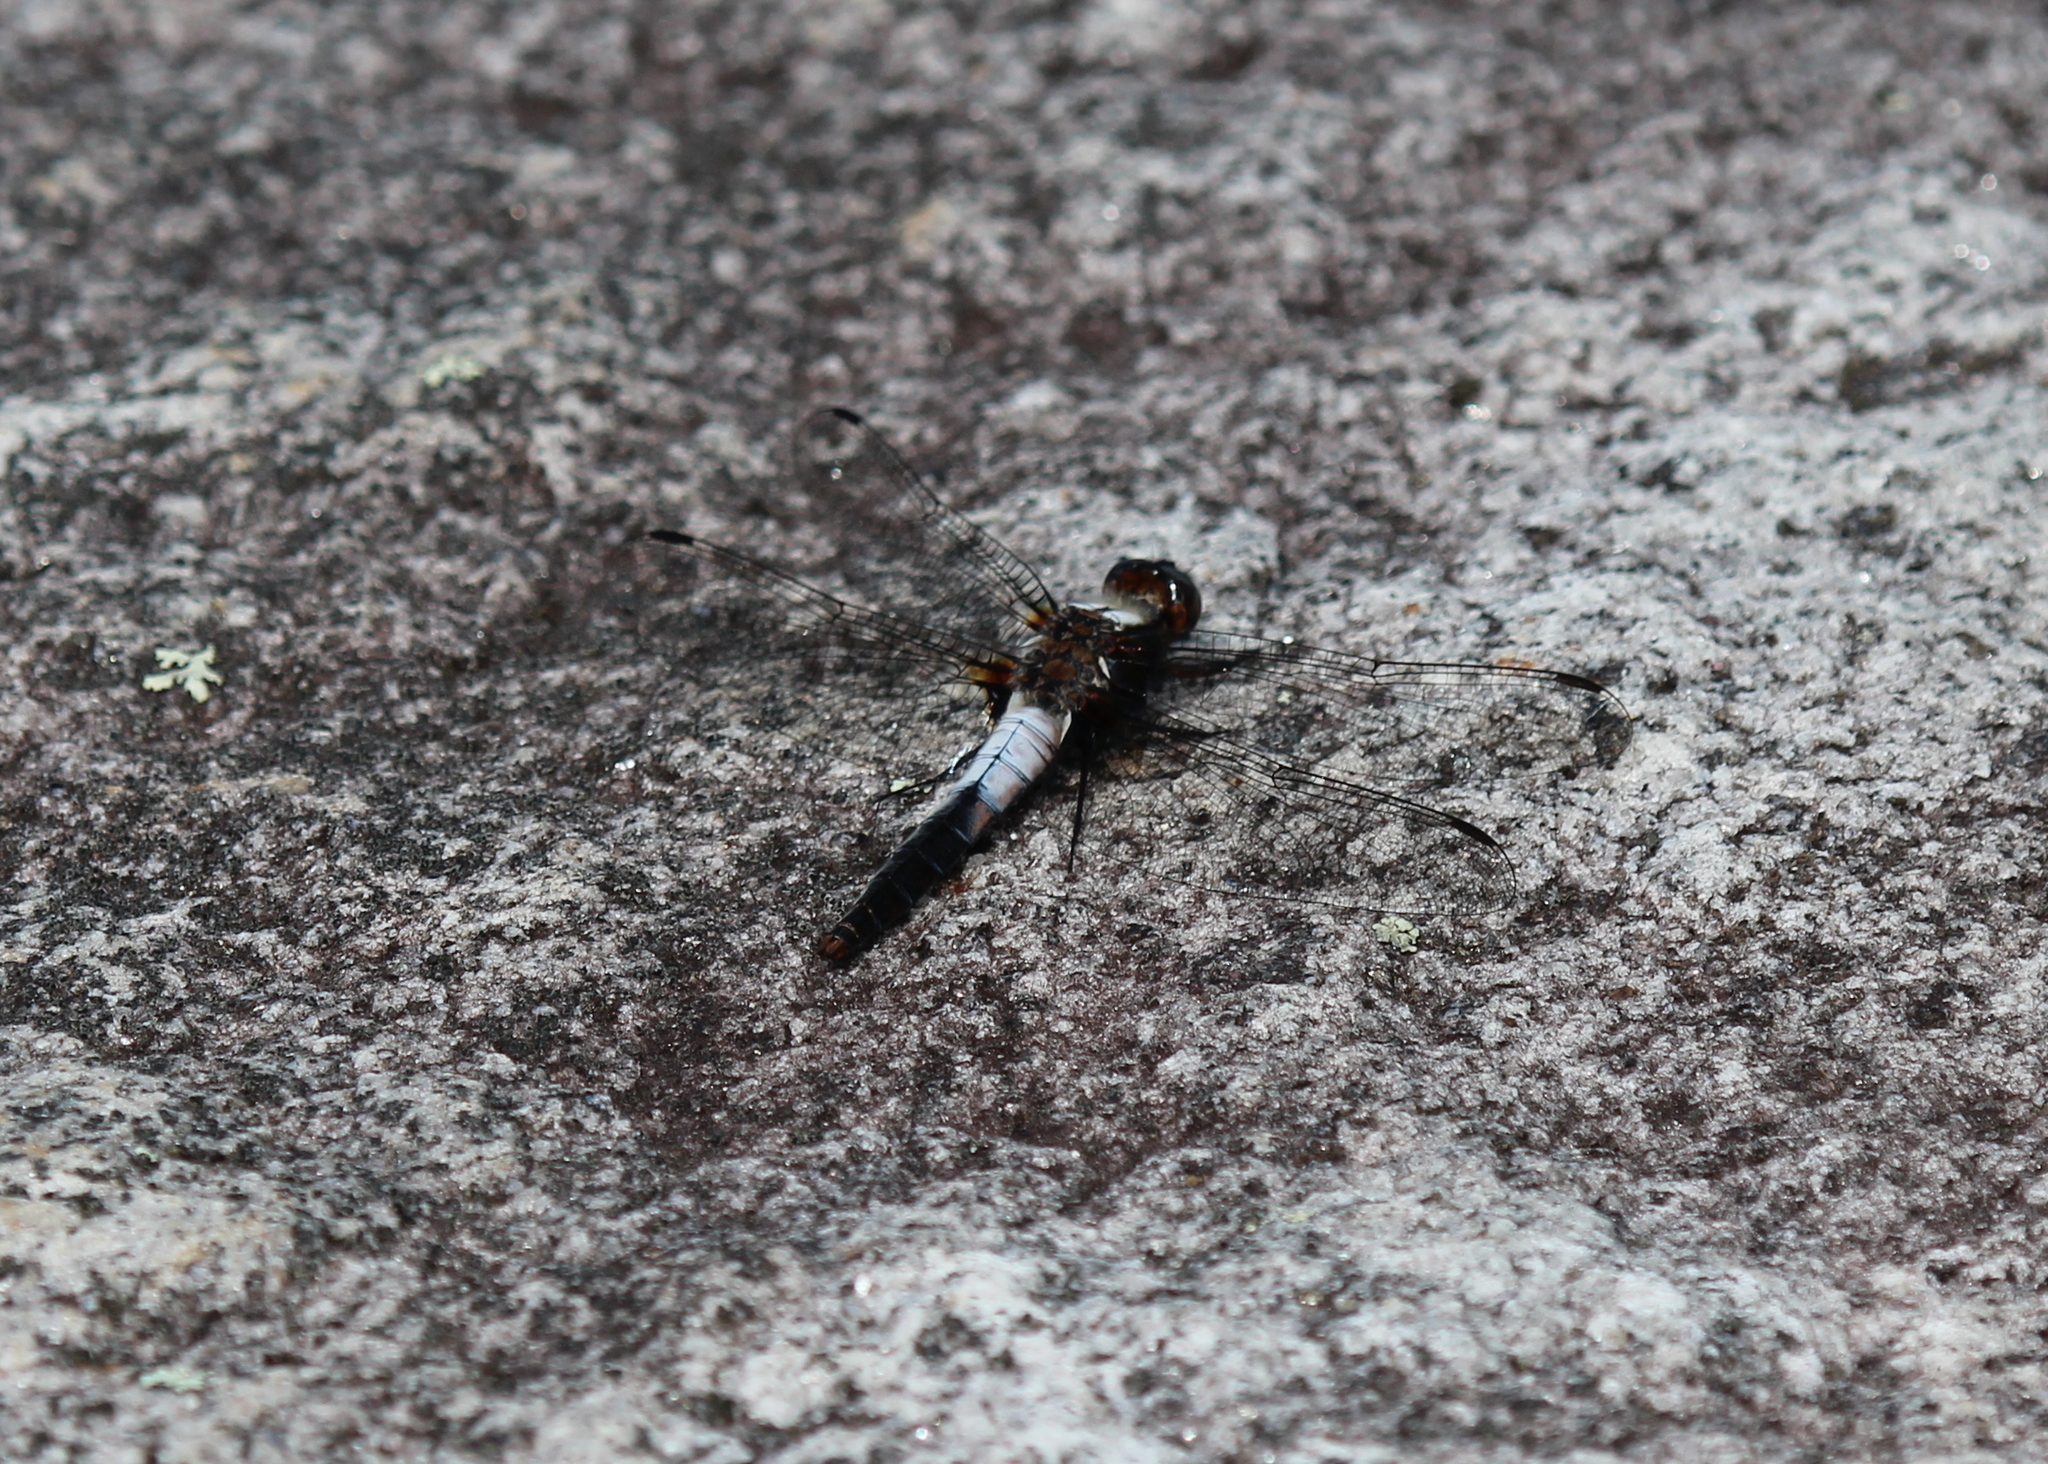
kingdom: Animalia
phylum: Arthropoda
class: Insecta
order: Odonata
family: Libellulidae
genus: Ladona
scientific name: Ladona julia
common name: Chalk-fronted corporal
